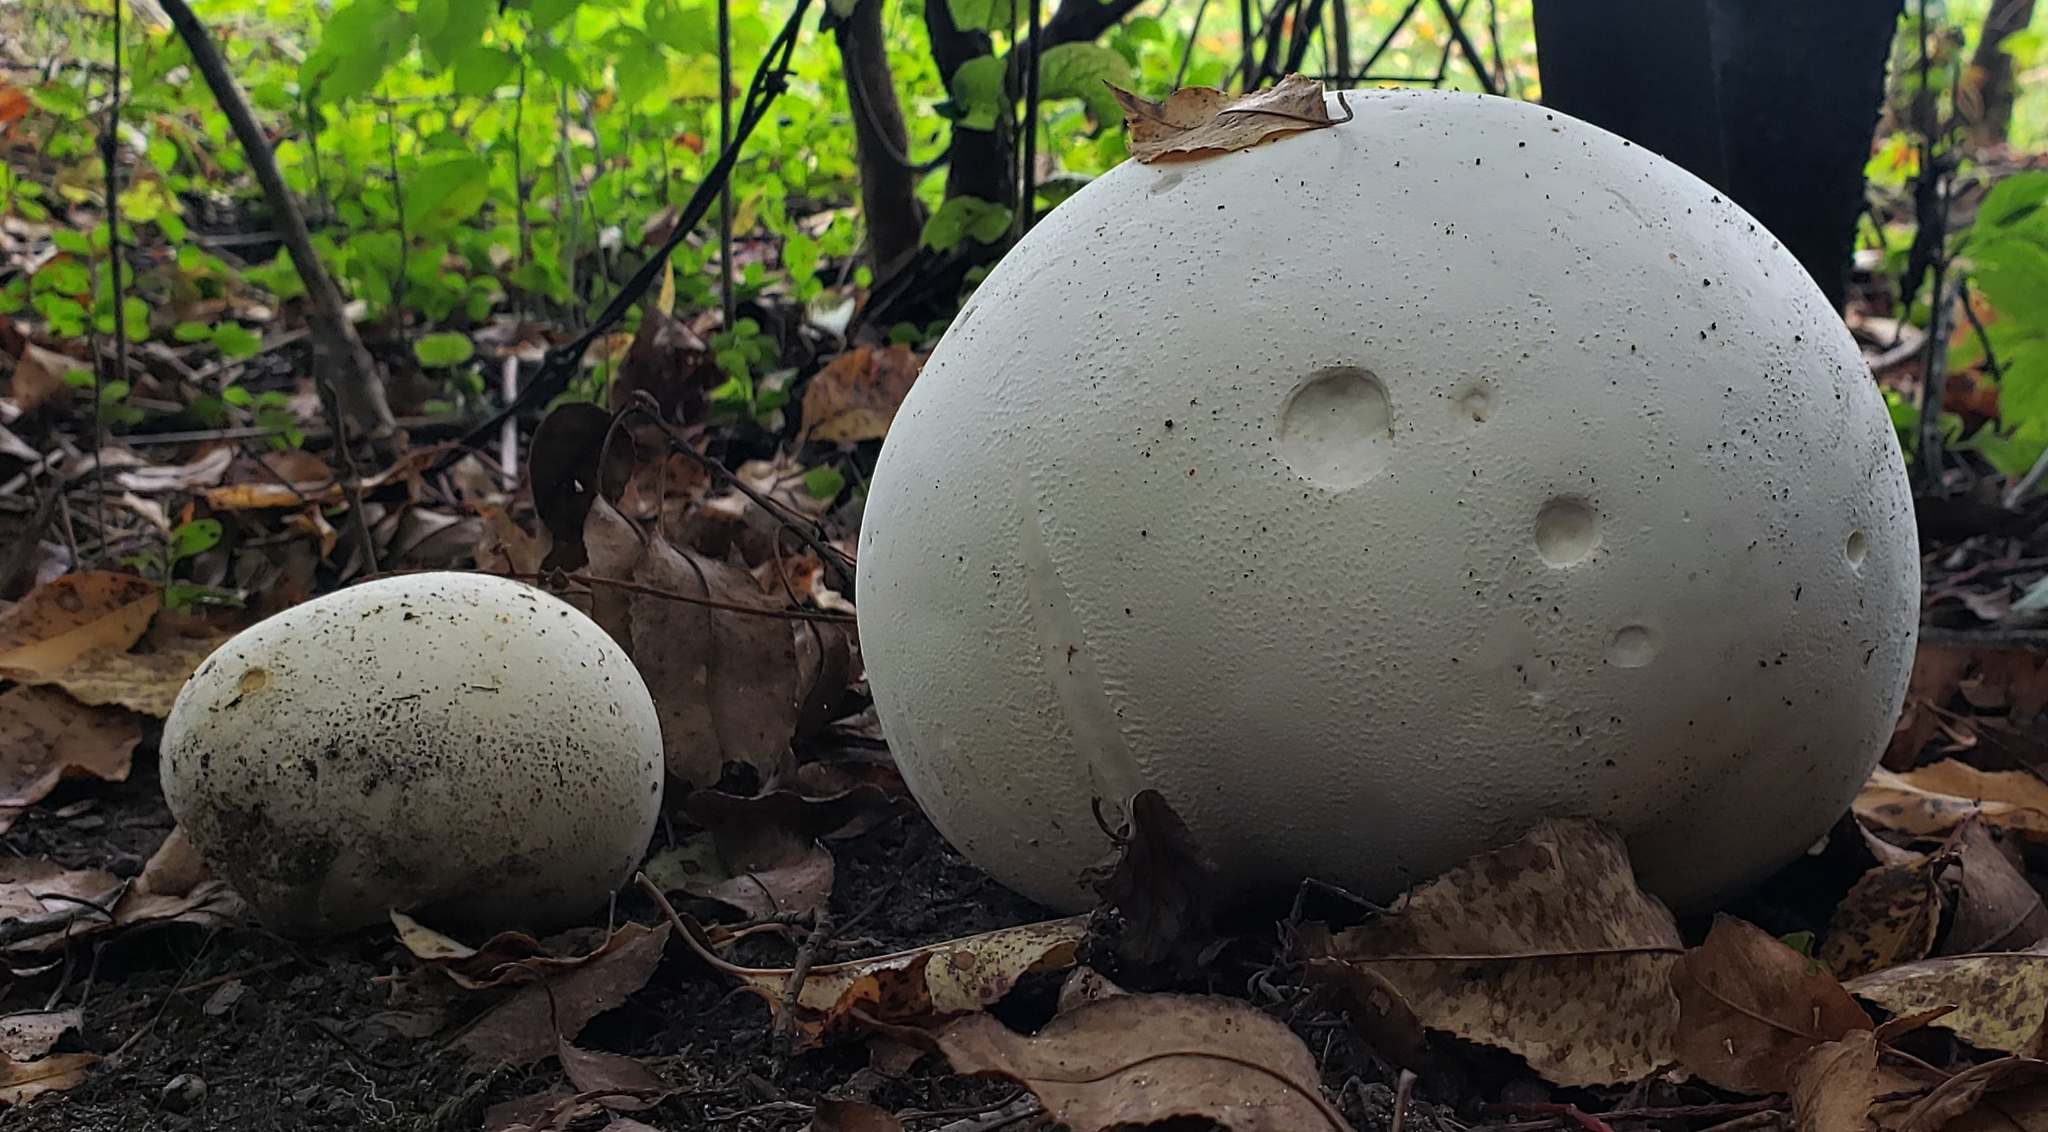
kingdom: Fungi
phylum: Basidiomycota
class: Agaricomycetes
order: Agaricales
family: Lycoperdaceae
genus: Calvatia
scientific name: Calvatia gigantea
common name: Giant puffball
